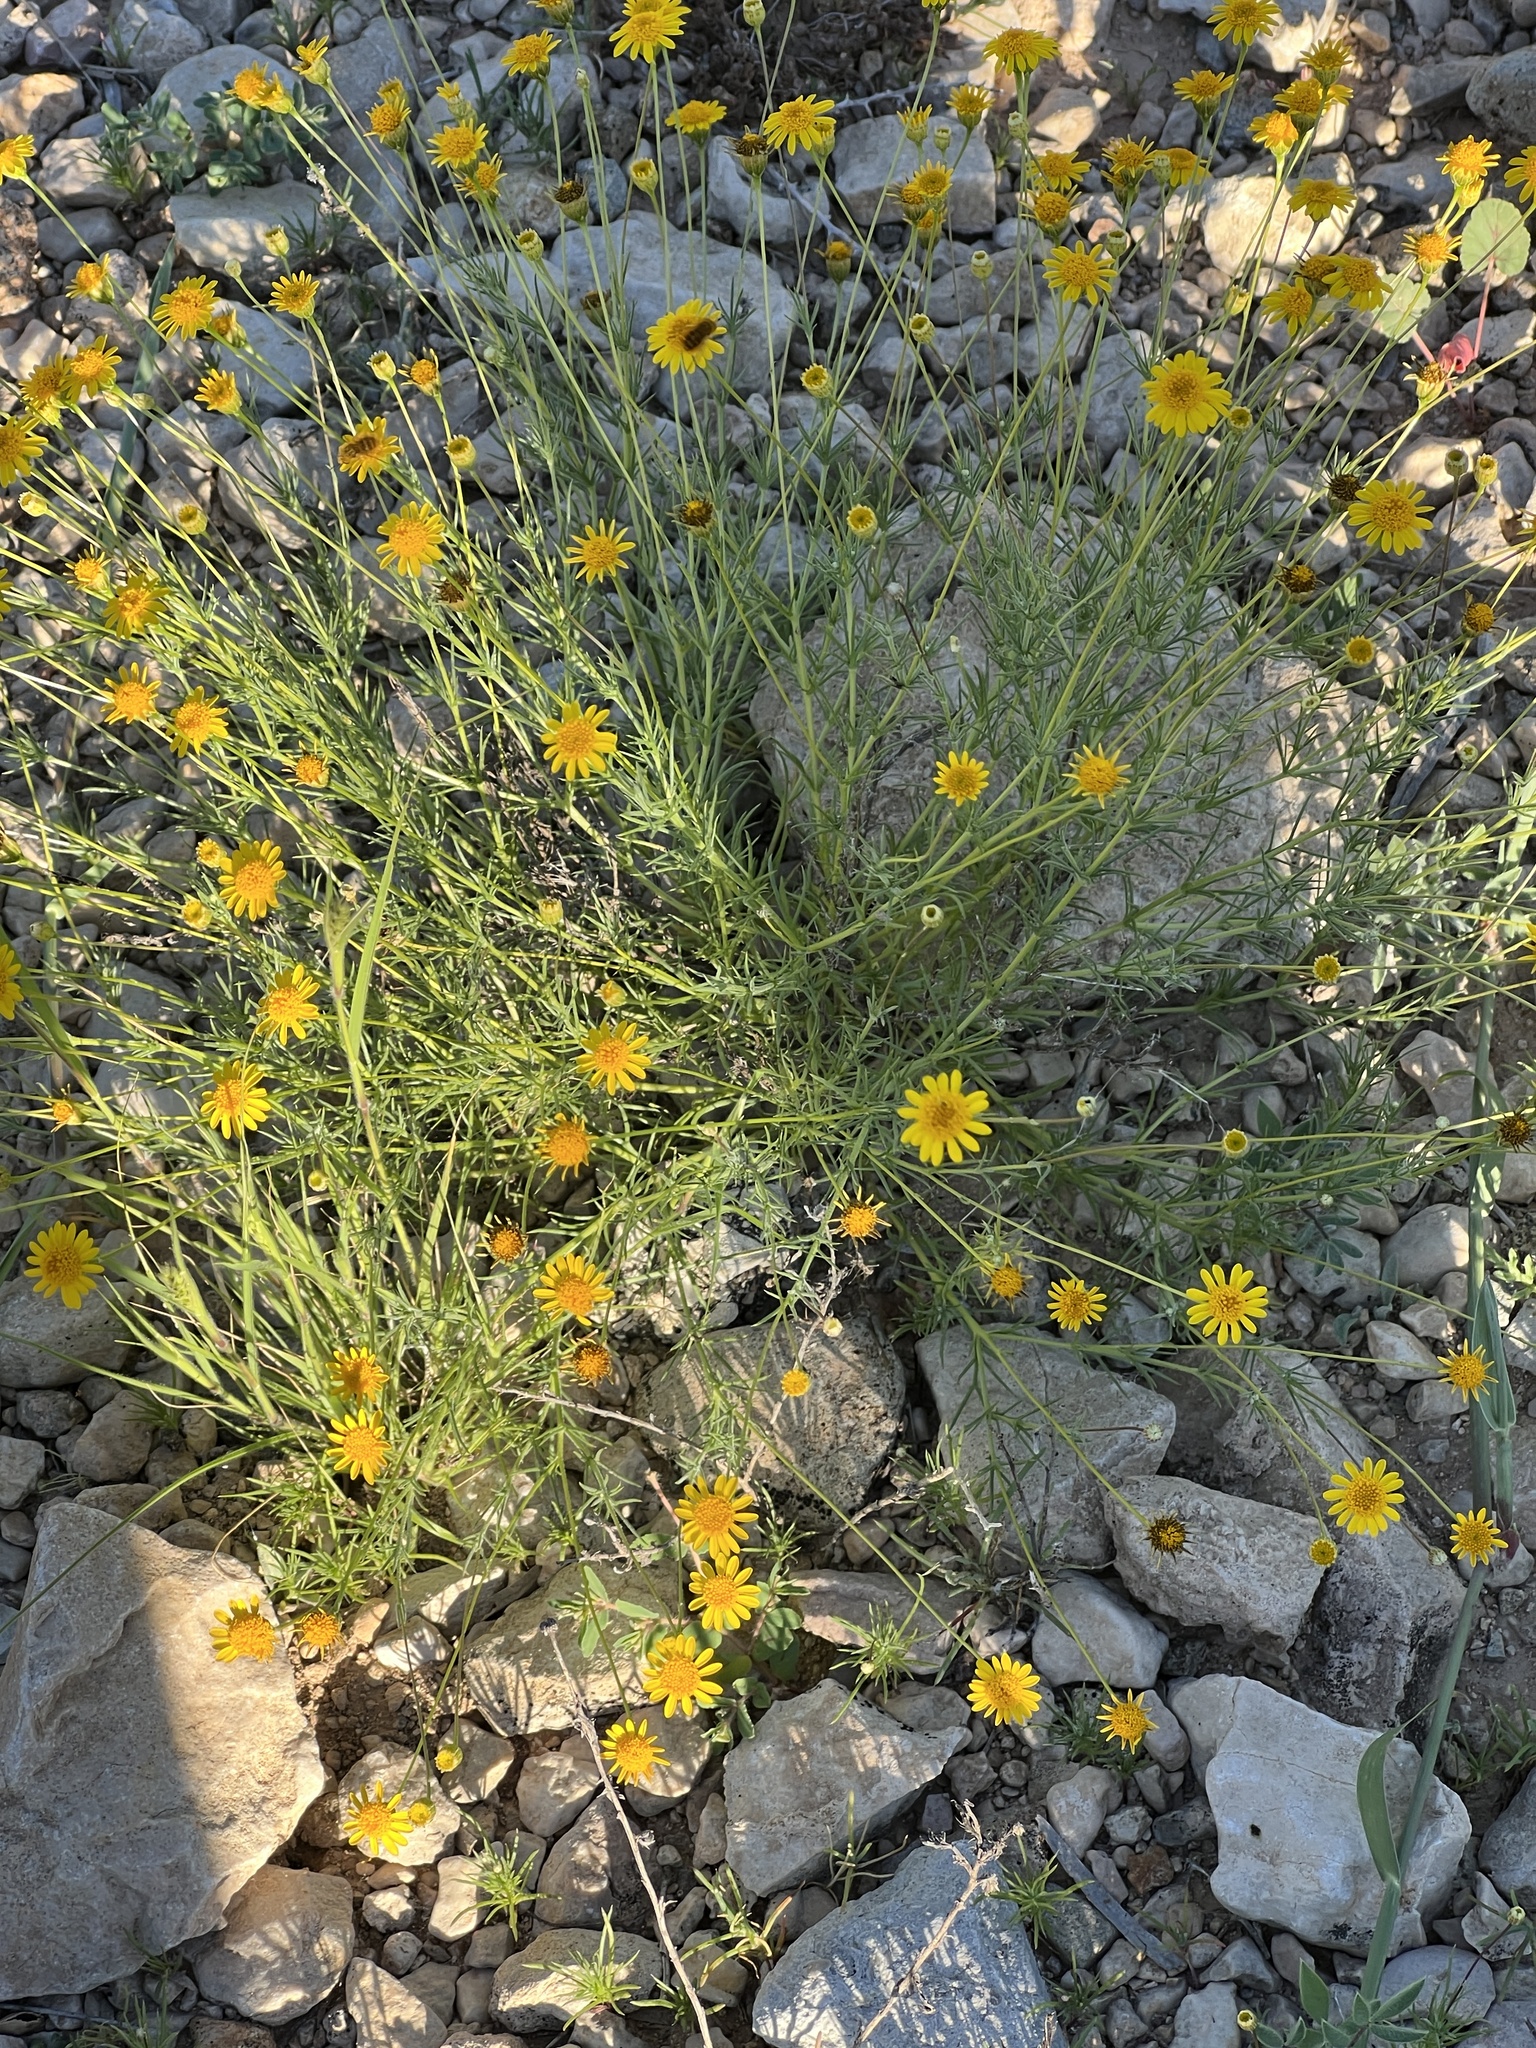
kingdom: Plantae
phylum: Tracheophyta
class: Magnoliopsida
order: Asterales
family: Asteraceae
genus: Thymophylla
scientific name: Thymophylla pentachaeta
